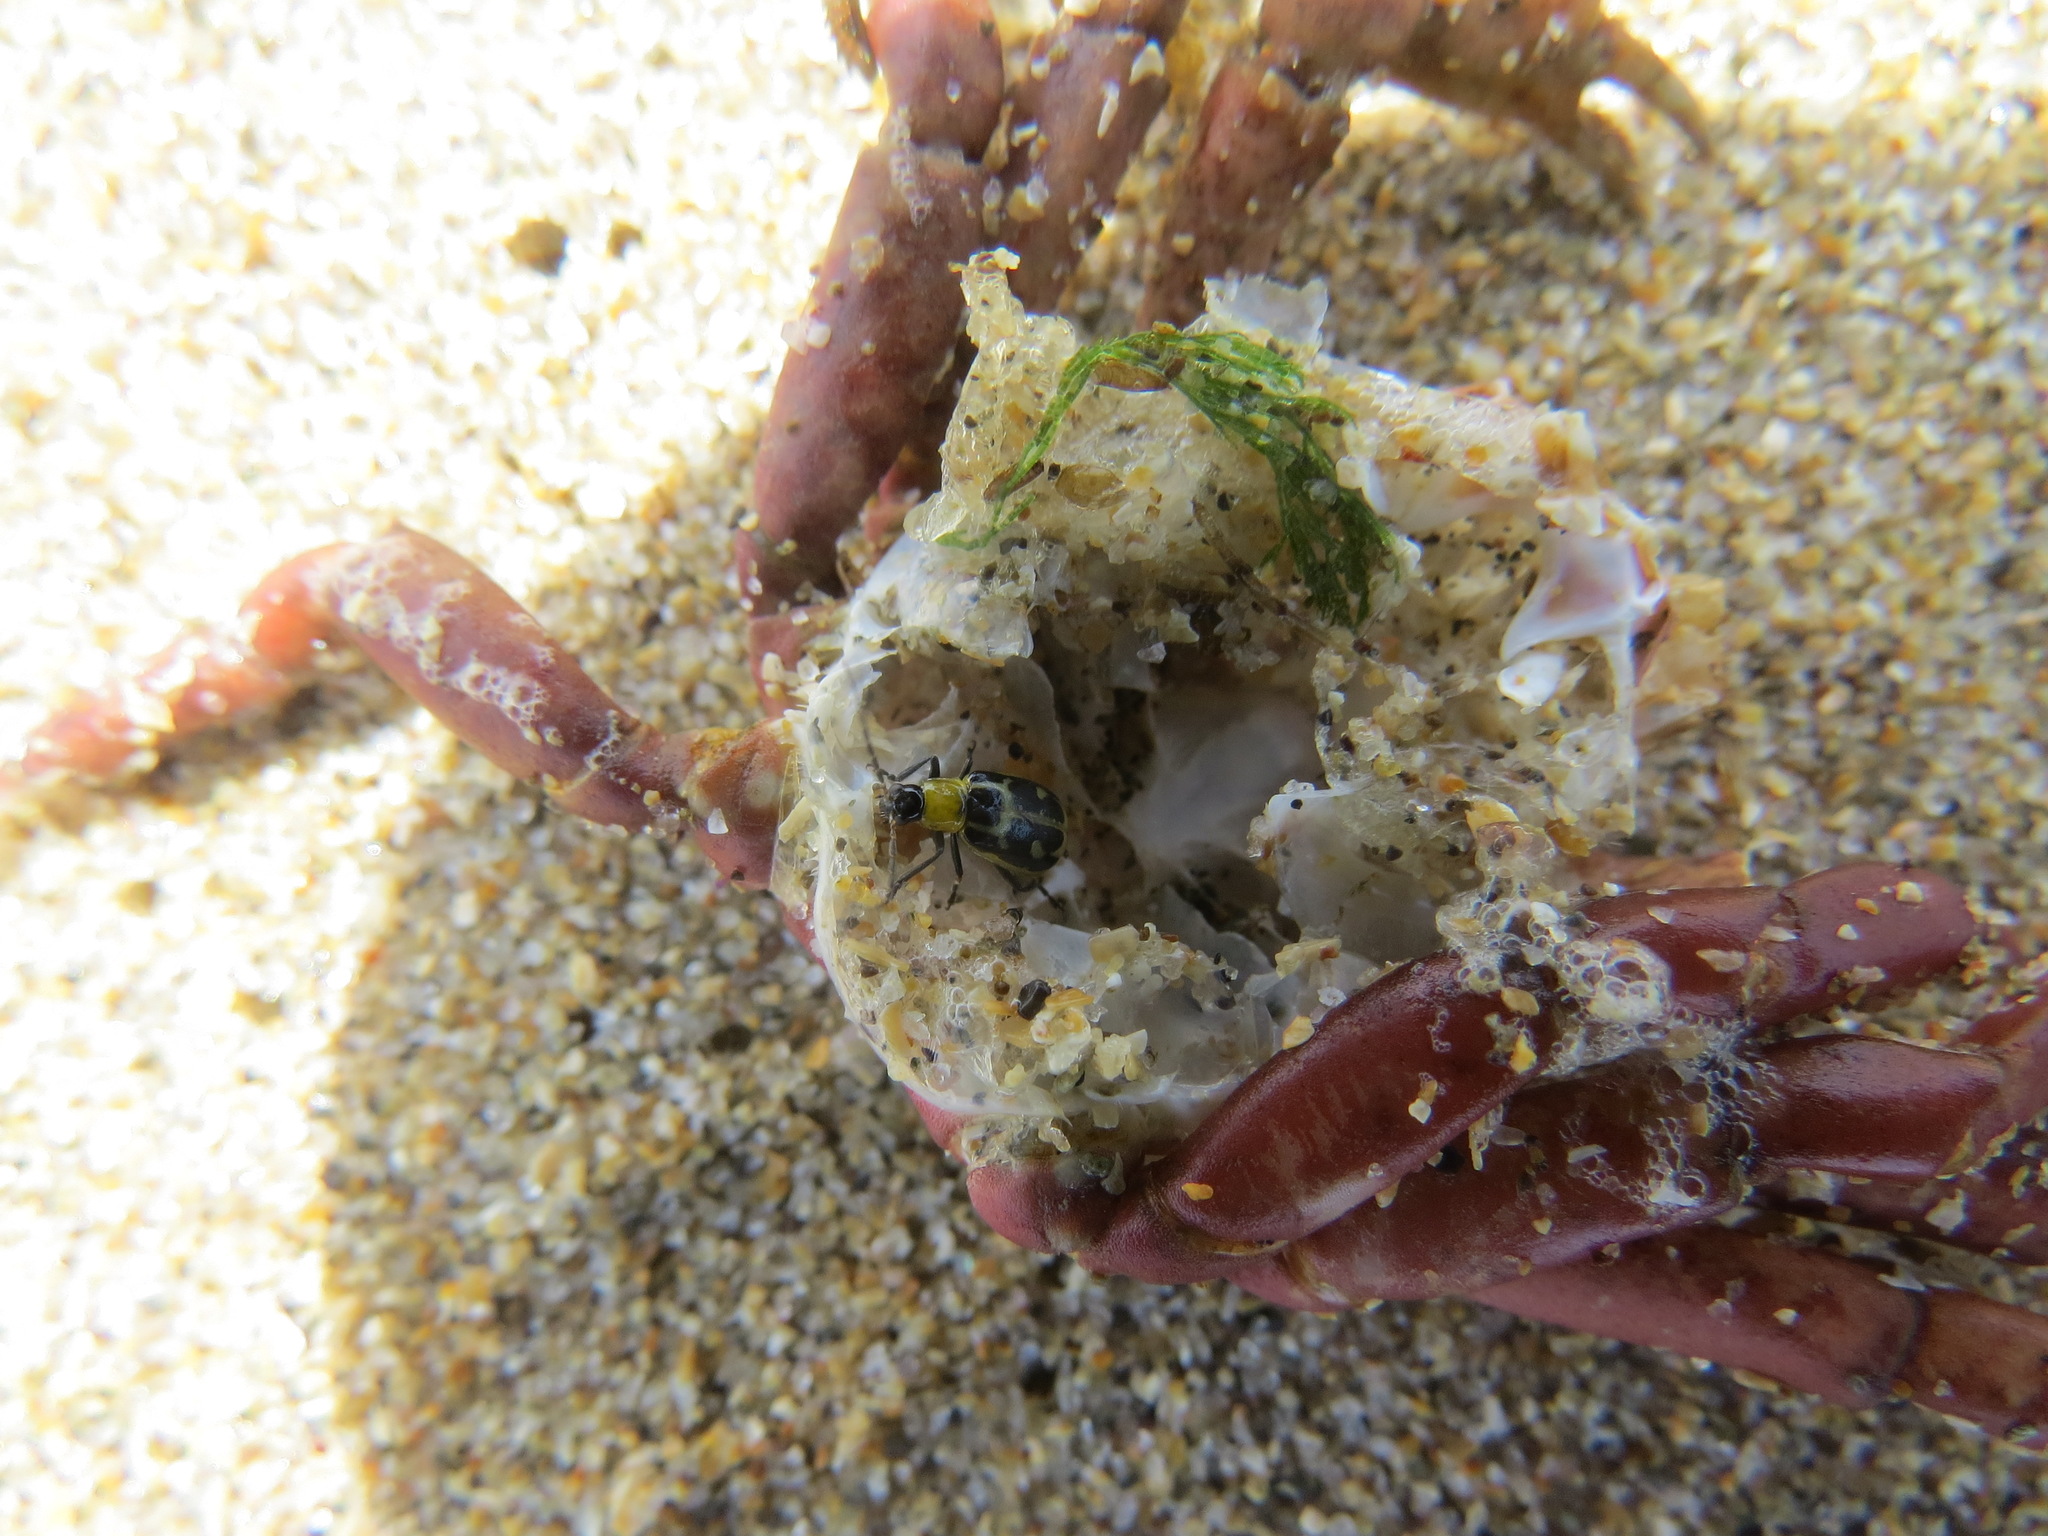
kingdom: Animalia
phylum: Arthropoda
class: Insecta
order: Coleoptera
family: Chrysomelidae
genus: Diabrotica
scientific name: Diabrotica undecimpunctata
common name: Spotted cucumber beetle
